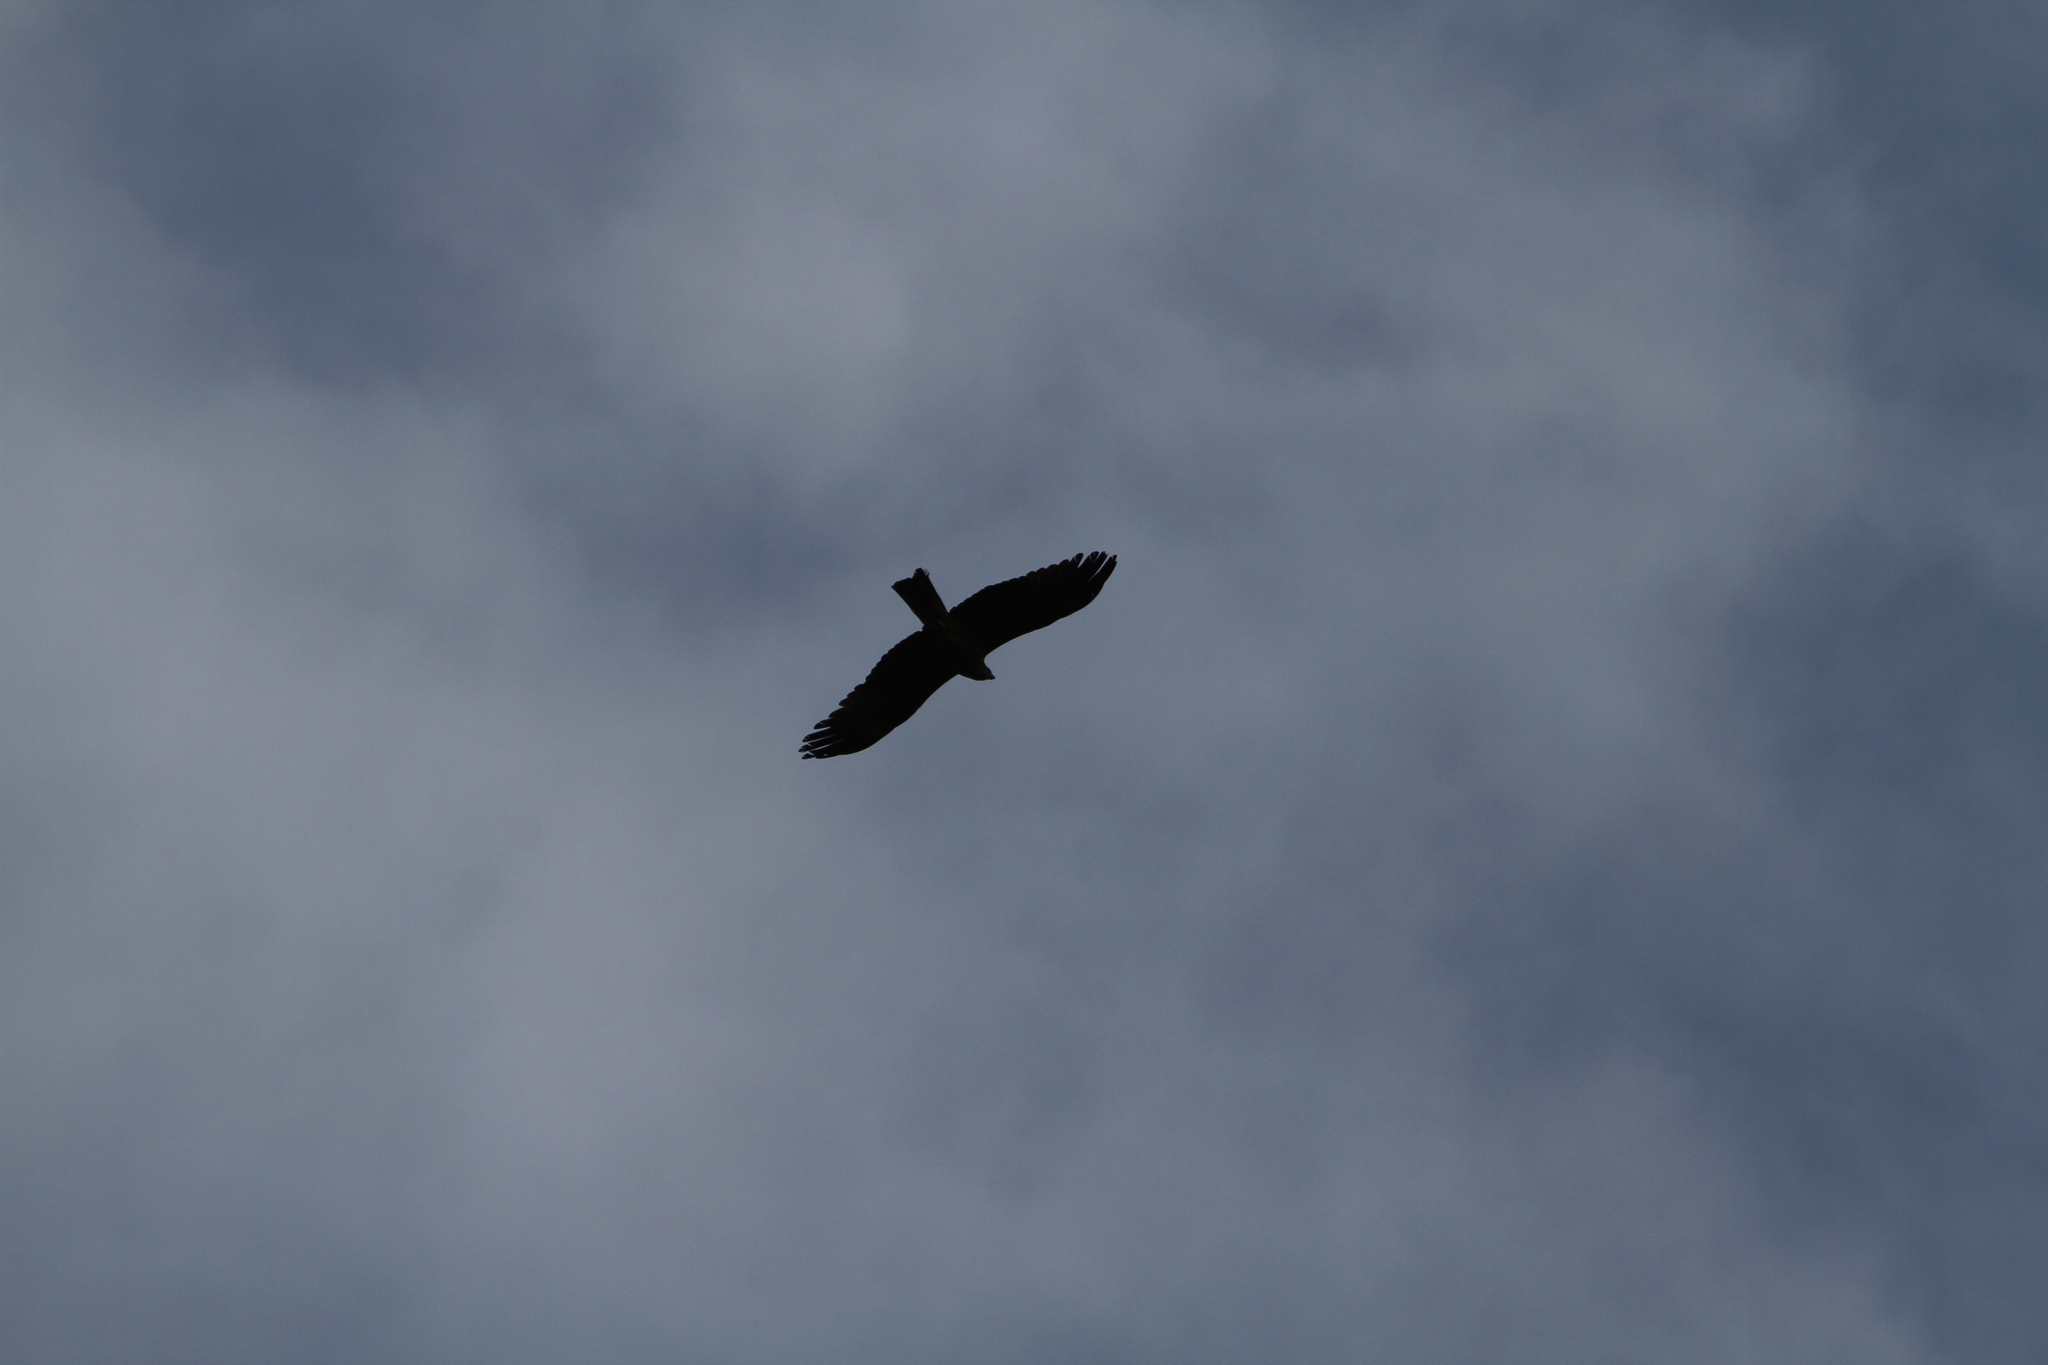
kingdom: Animalia
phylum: Chordata
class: Aves
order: Accipitriformes
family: Accipitridae
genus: Milvus
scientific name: Milvus migrans
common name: Black kite
